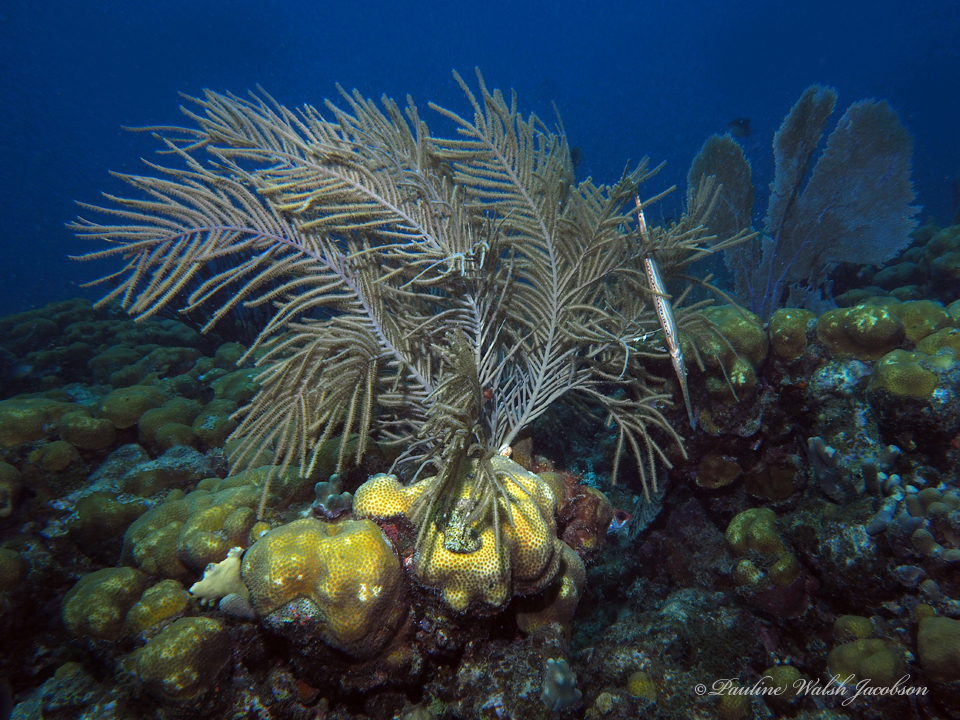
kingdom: Animalia
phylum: Chordata
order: Syngnathiformes
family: Aulostomidae
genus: Aulostomus
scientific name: Aulostomus maculatus
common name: West atlantic trumpetfish
